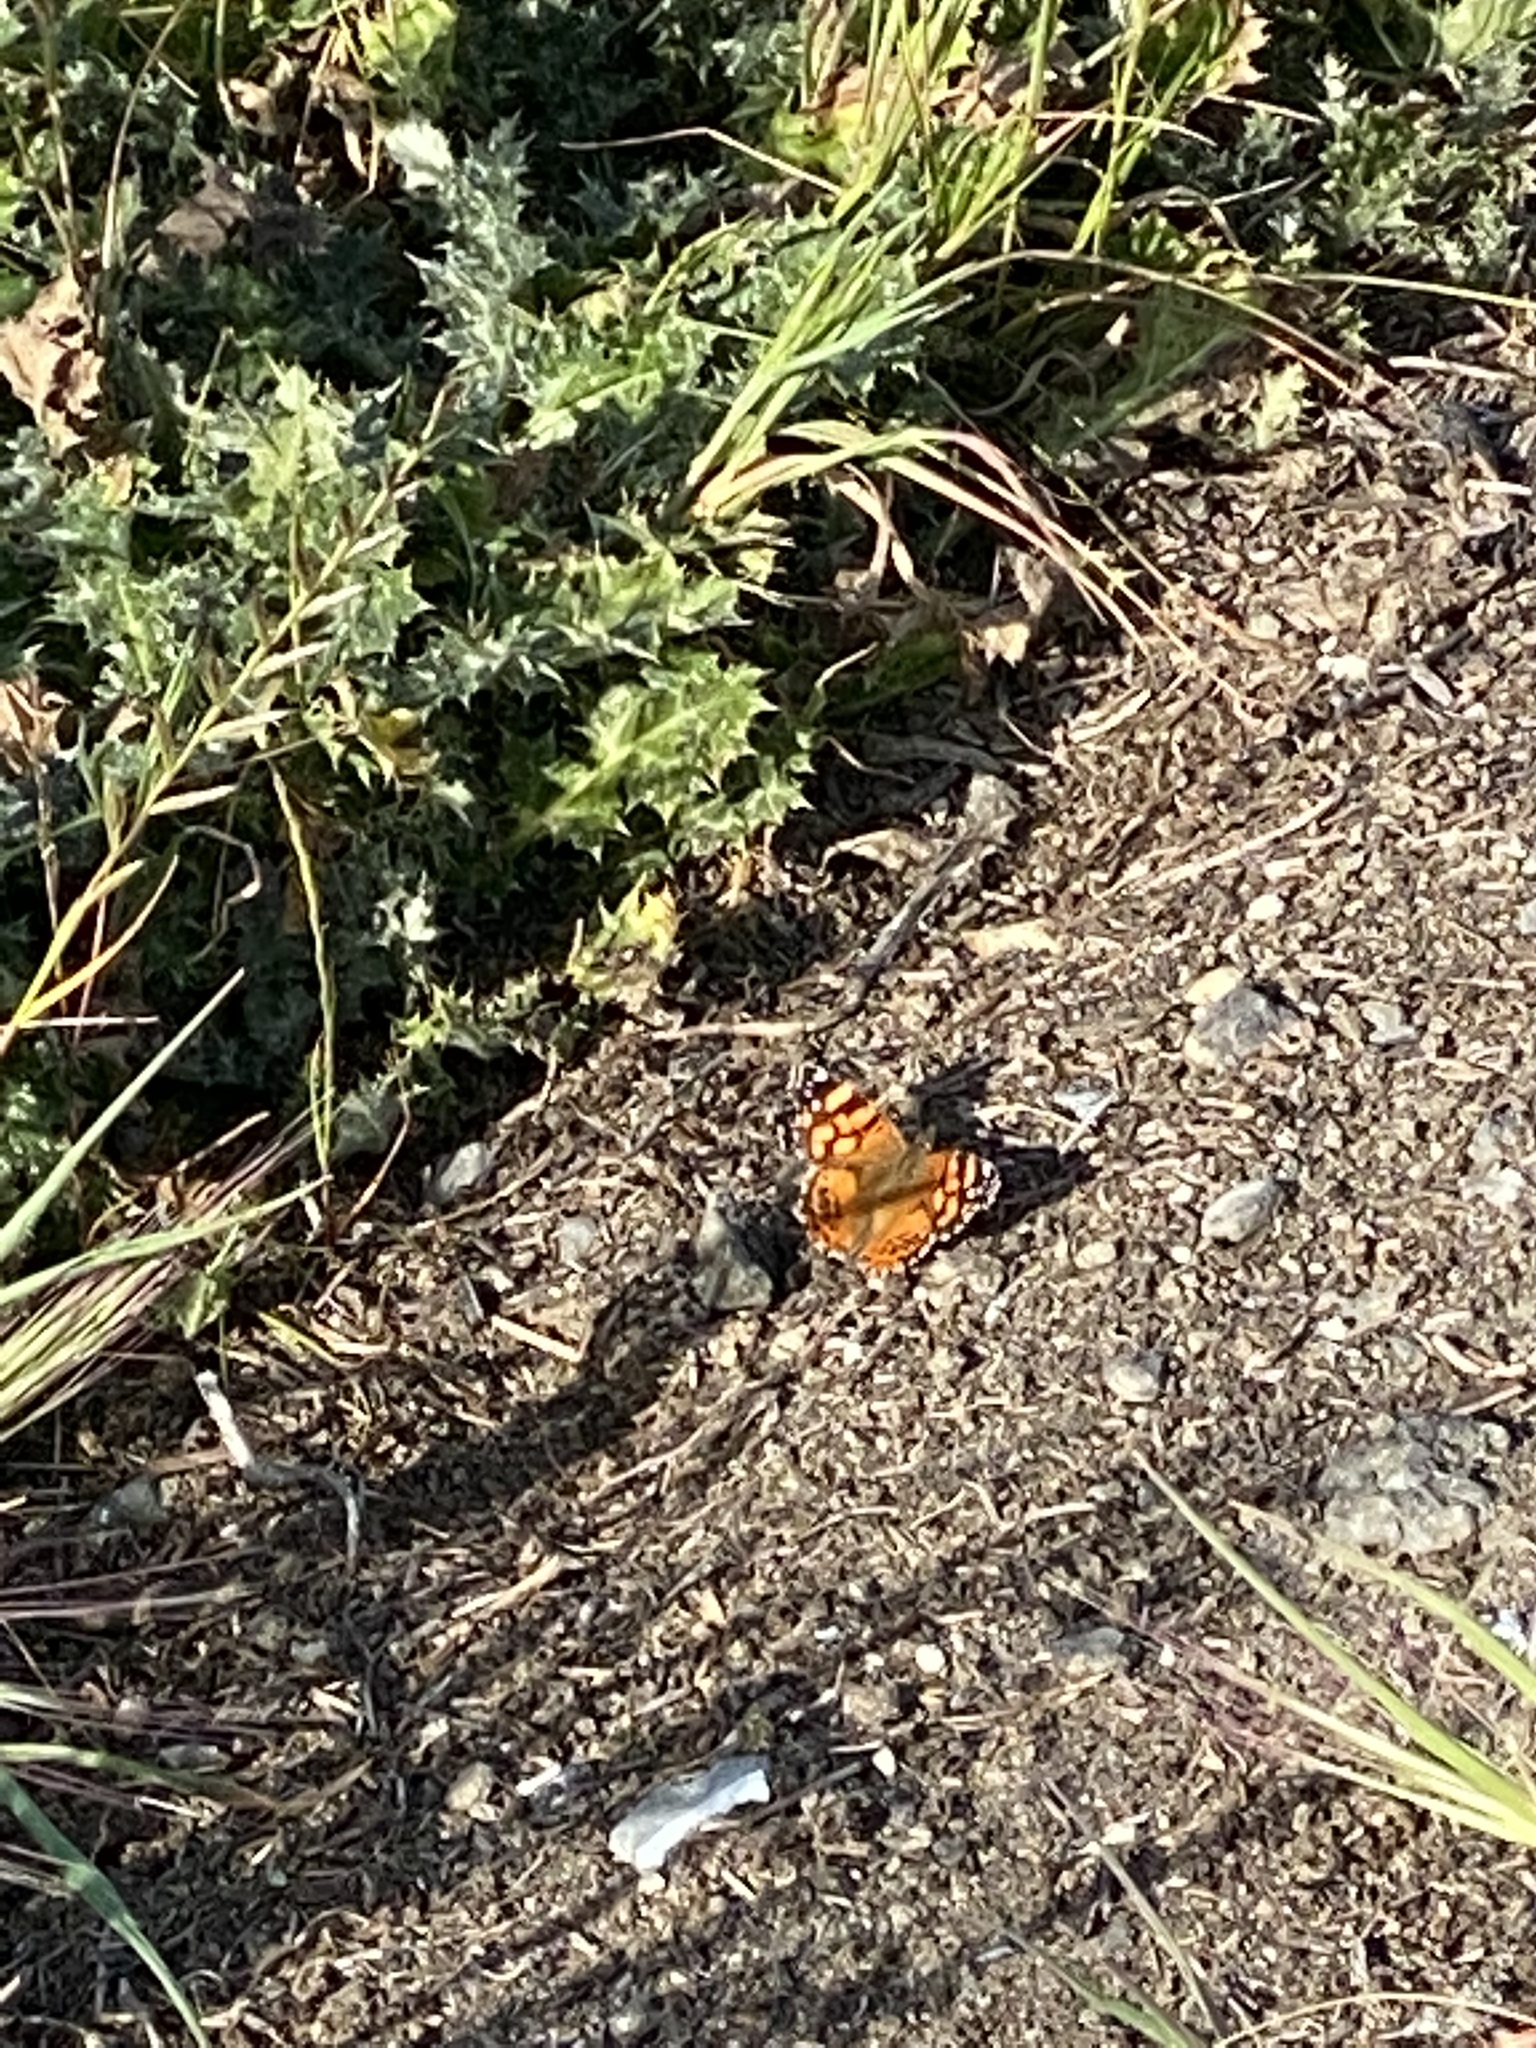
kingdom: Animalia
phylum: Arthropoda
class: Insecta
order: Lepidoptera
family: Nymphalidae
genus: Vanessa
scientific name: Vanessa annabella
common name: West coast lady
